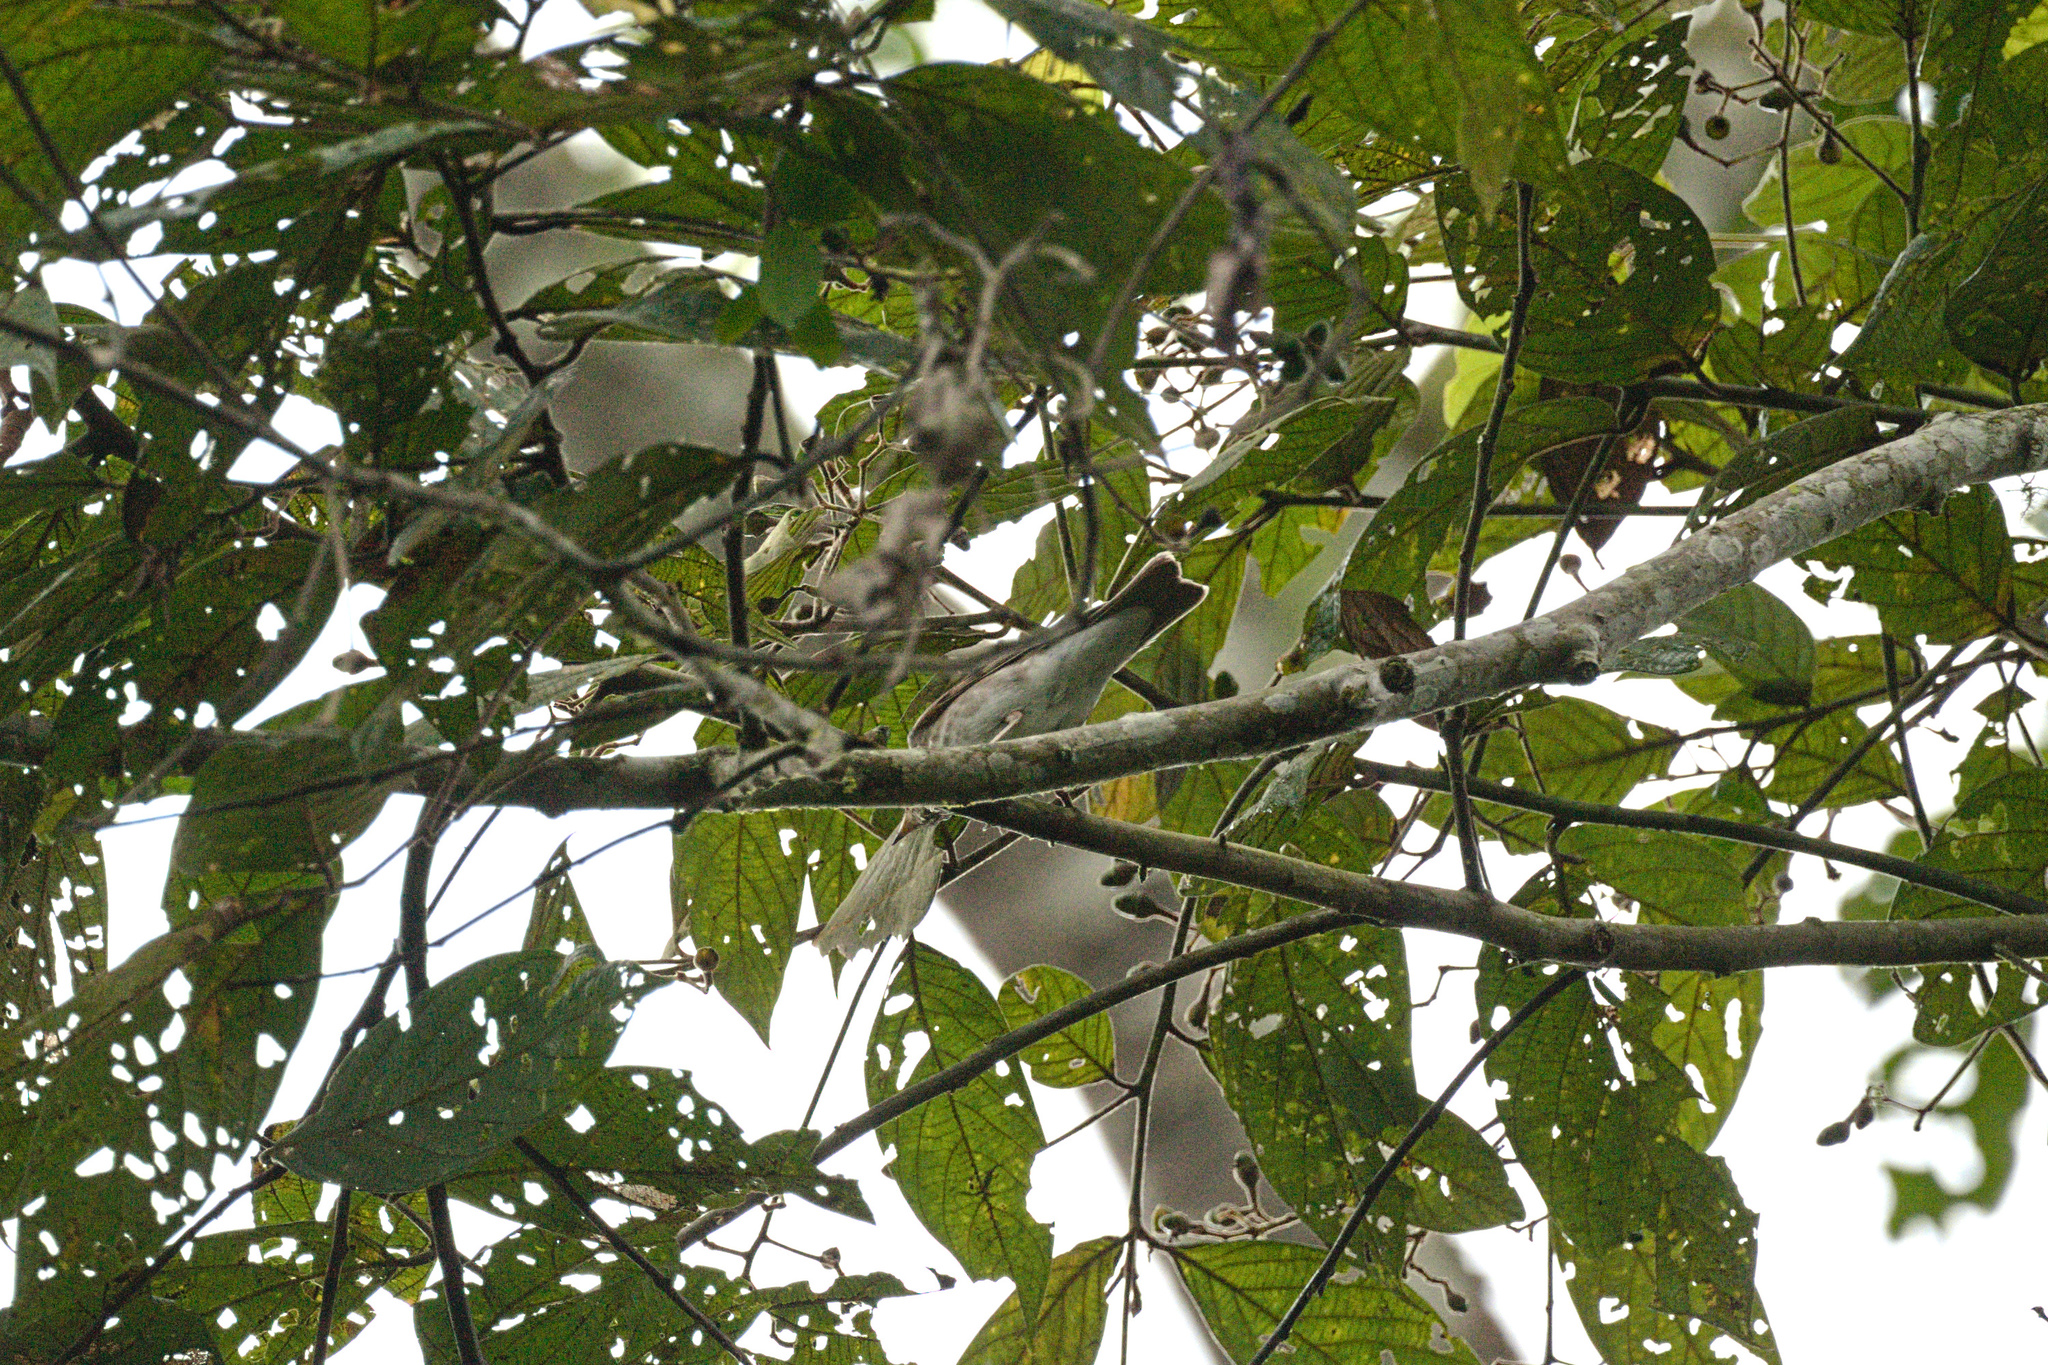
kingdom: Animalia
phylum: Chordata
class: Aves
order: Passeriformes
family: Turdidae
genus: Catharus
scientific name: Catharus ustulatus
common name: Swainson's thrush
